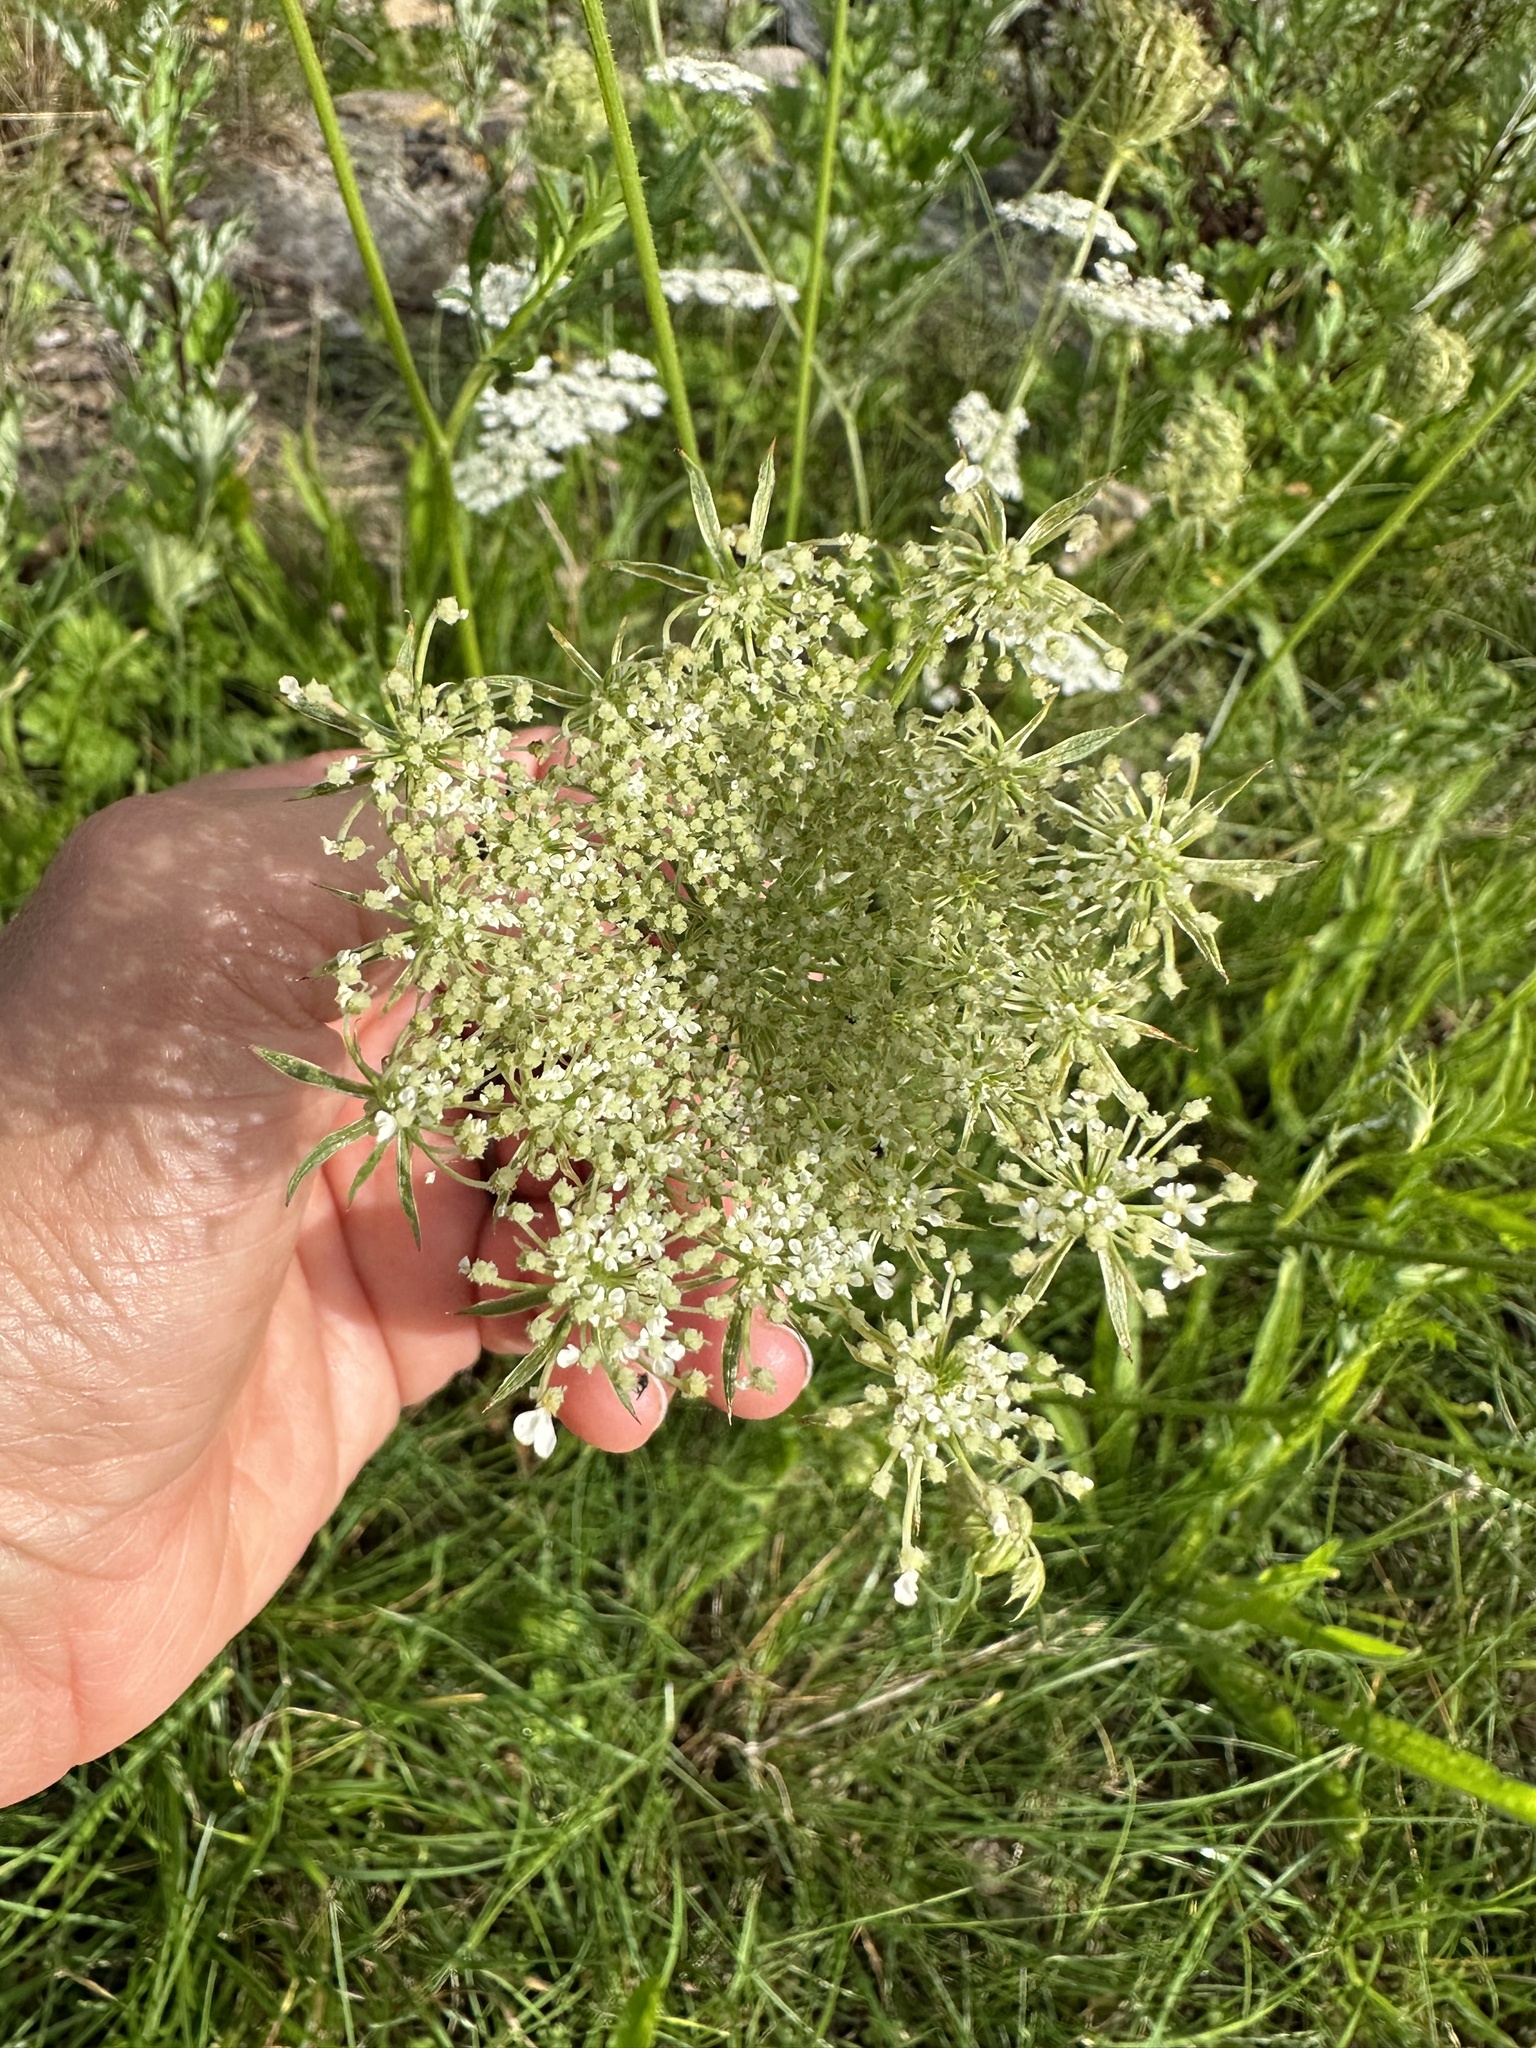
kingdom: Plantae
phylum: Tracheophyta
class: Magnoliopsida
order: Apiales
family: Apiaceae
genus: Daucus
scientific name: Daucus carota
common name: Wild carrot
